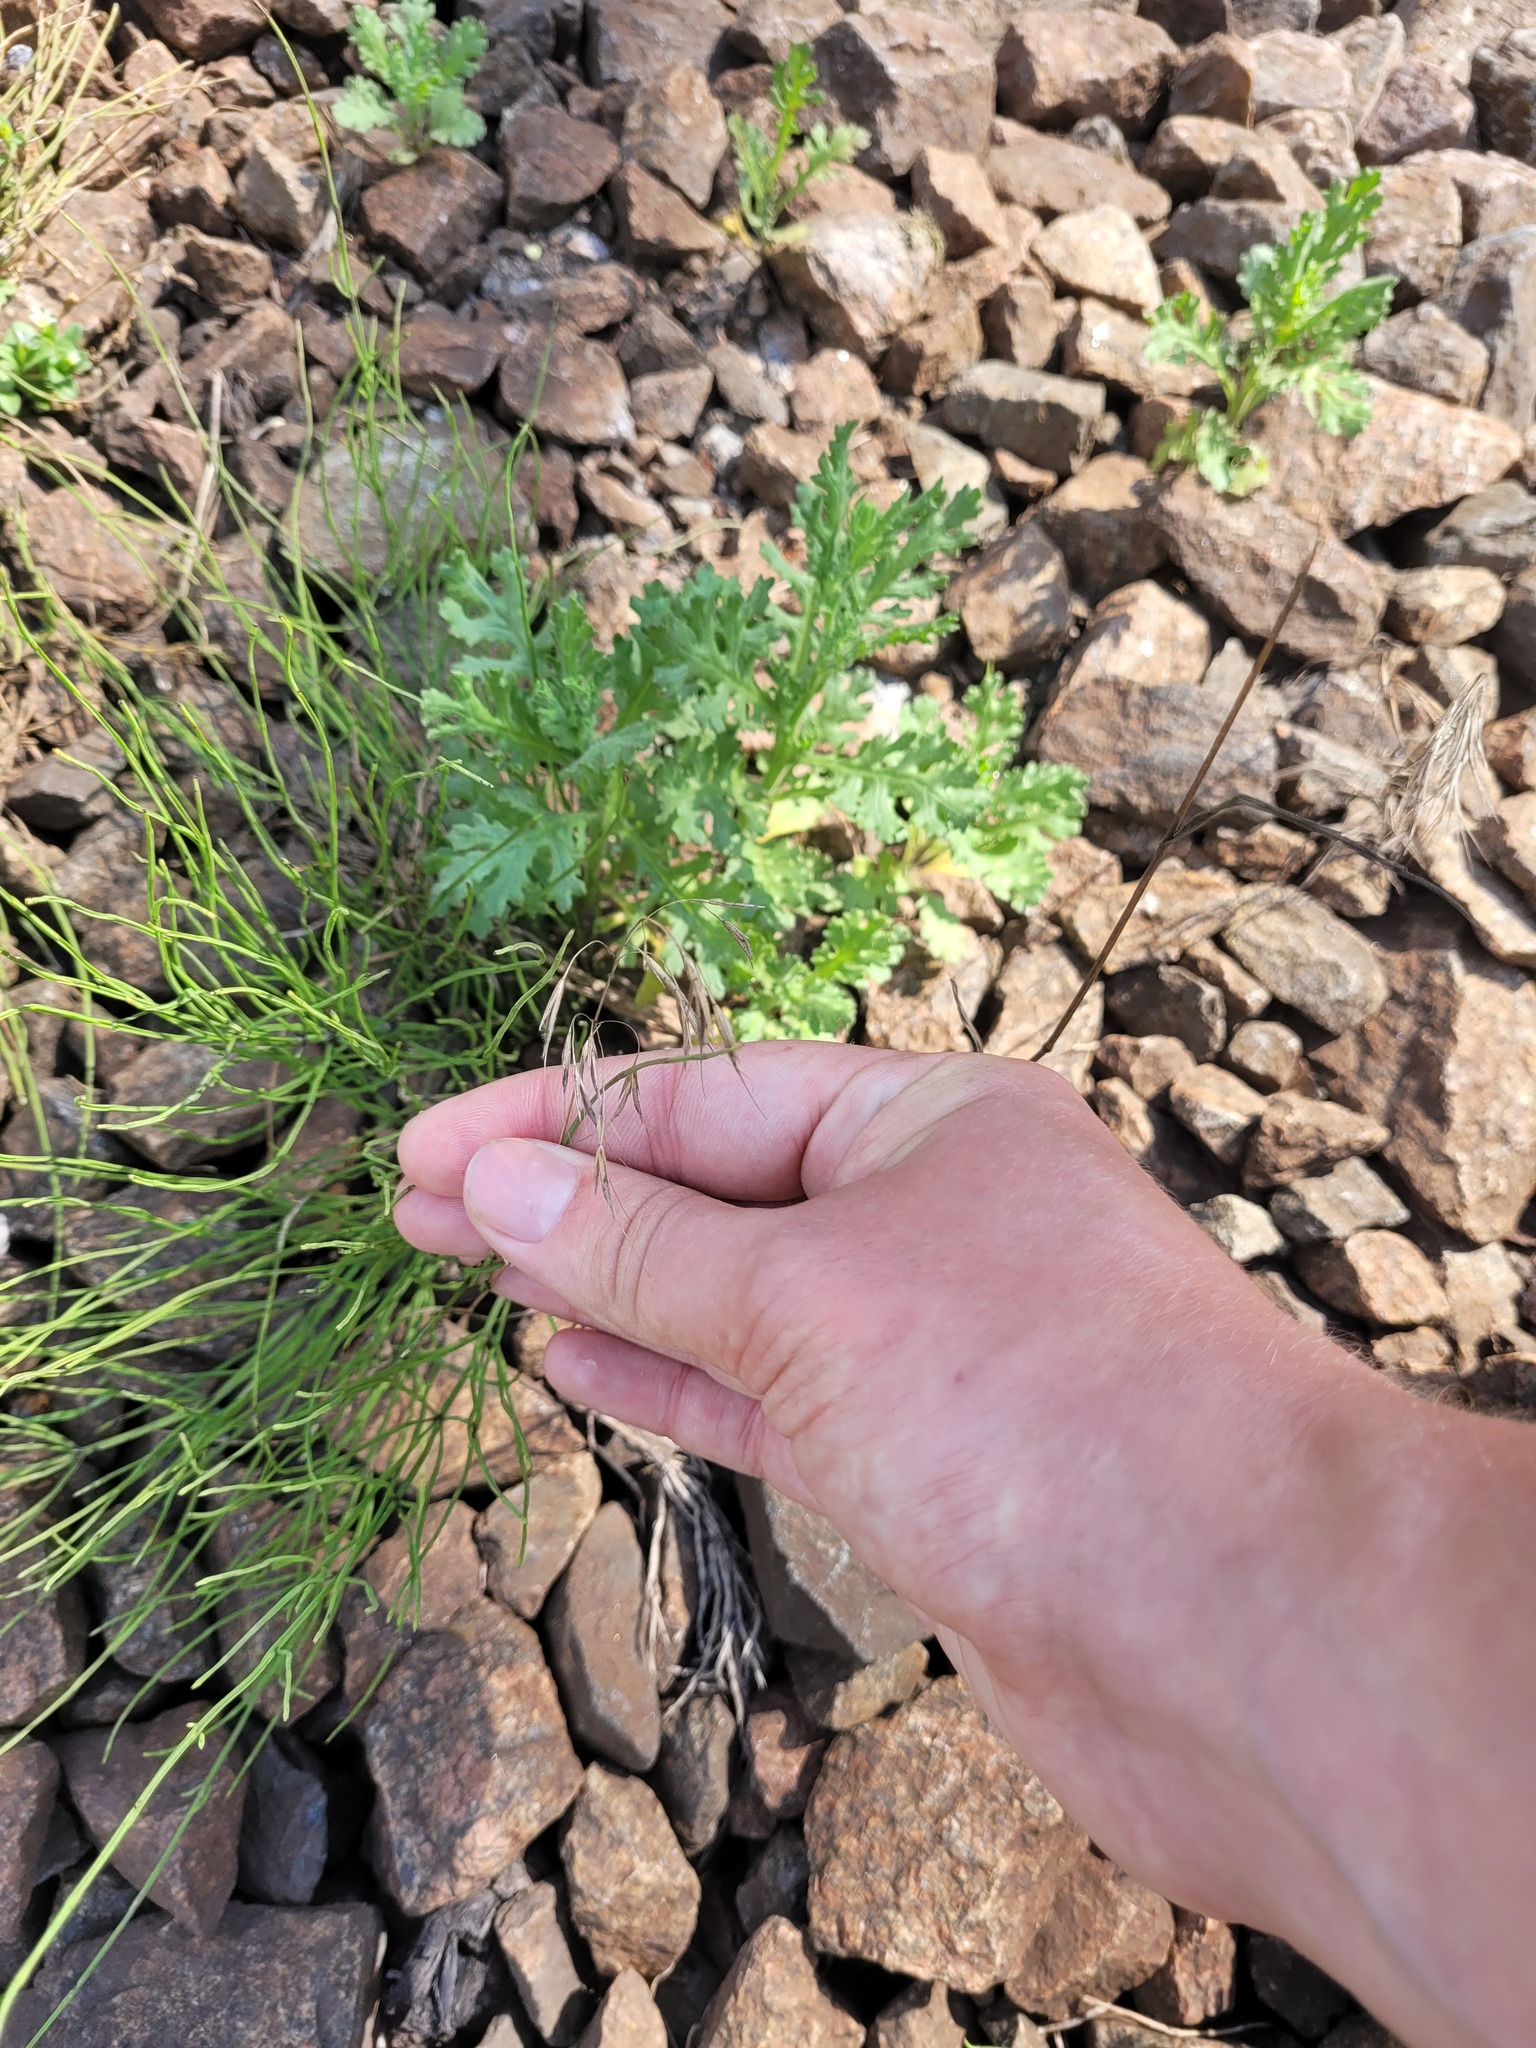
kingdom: Plantae
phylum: Tracheophyta
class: Liliopsida
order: Poales
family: Poaceae
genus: Bromus
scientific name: Bromus tectorum
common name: Cheatgrass
